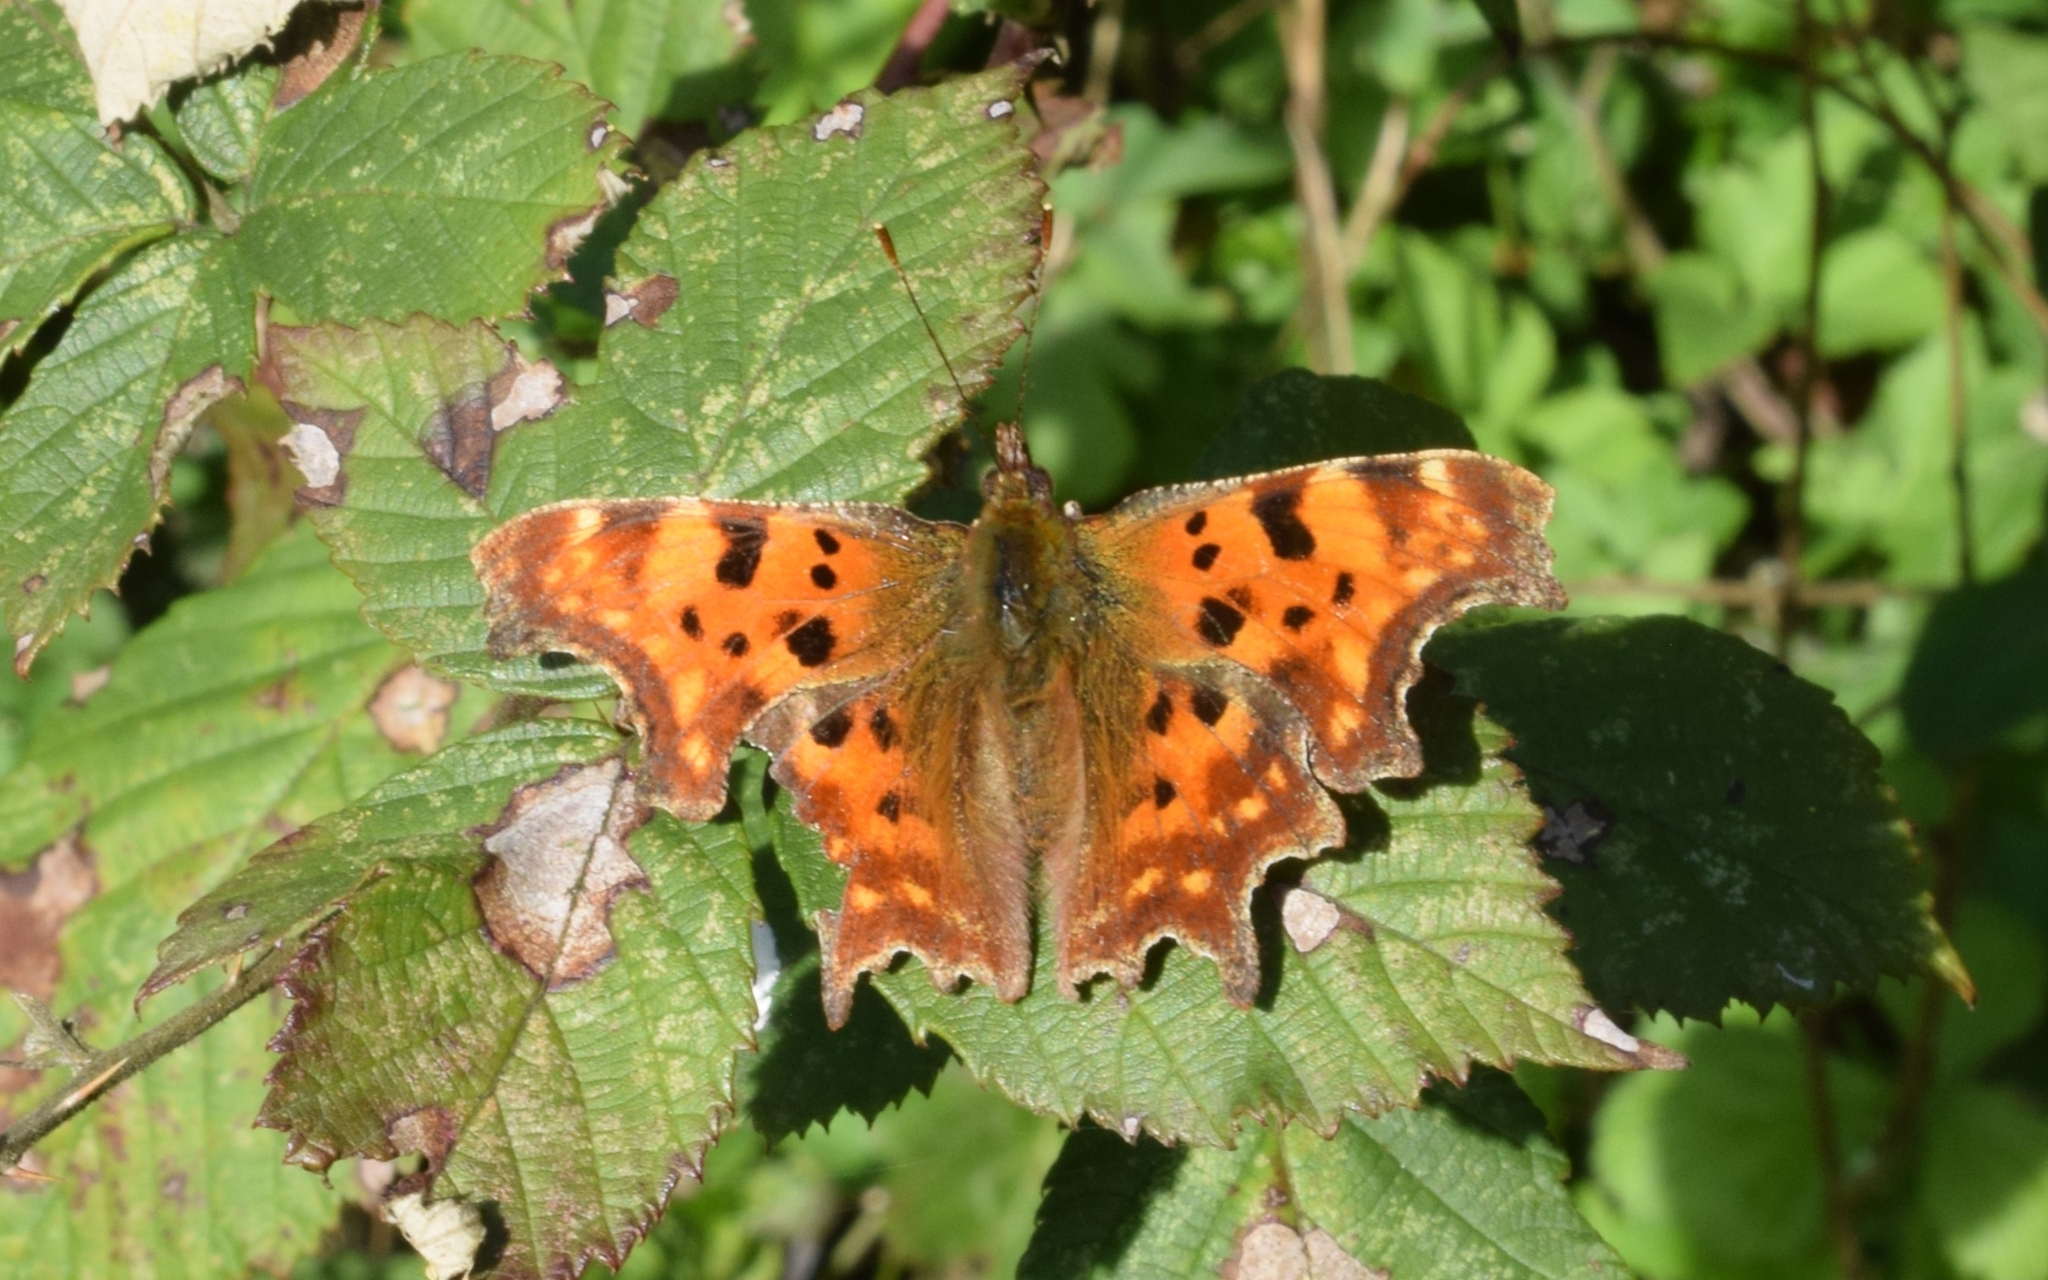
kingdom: Animalia
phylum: Arthropoda
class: Insecta
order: Lepidoptera
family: Nymphalidae
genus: Polygonia
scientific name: Polygonia c-album
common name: Comma
